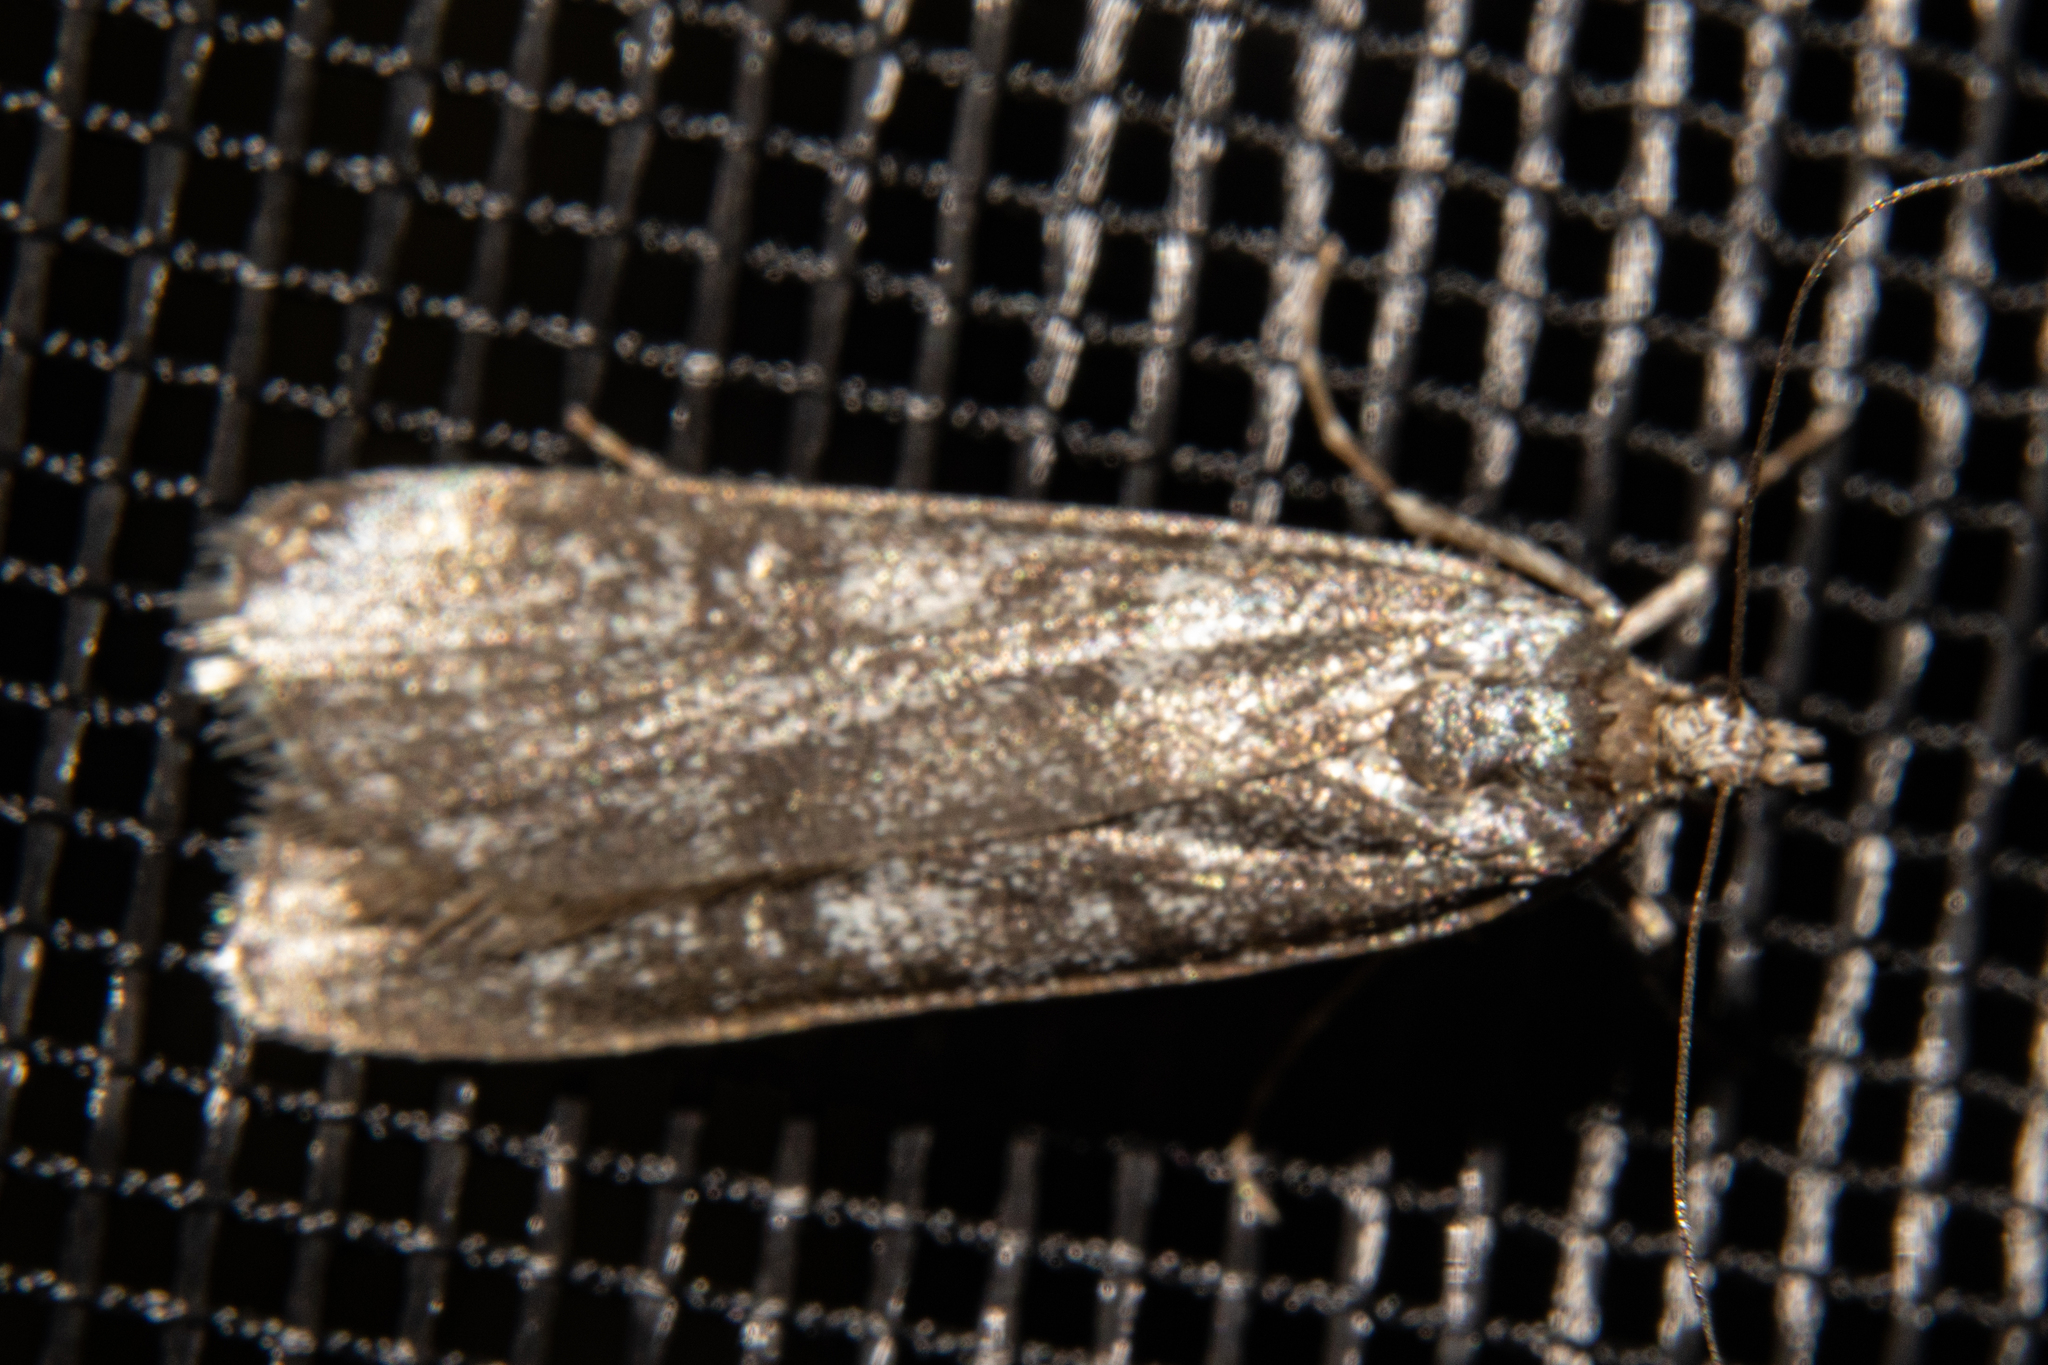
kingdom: Animalia
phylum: Arthropoda
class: Insecta
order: Lepidoptera
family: Crambidae
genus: Eudonia
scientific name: Eudonia cataxesta
